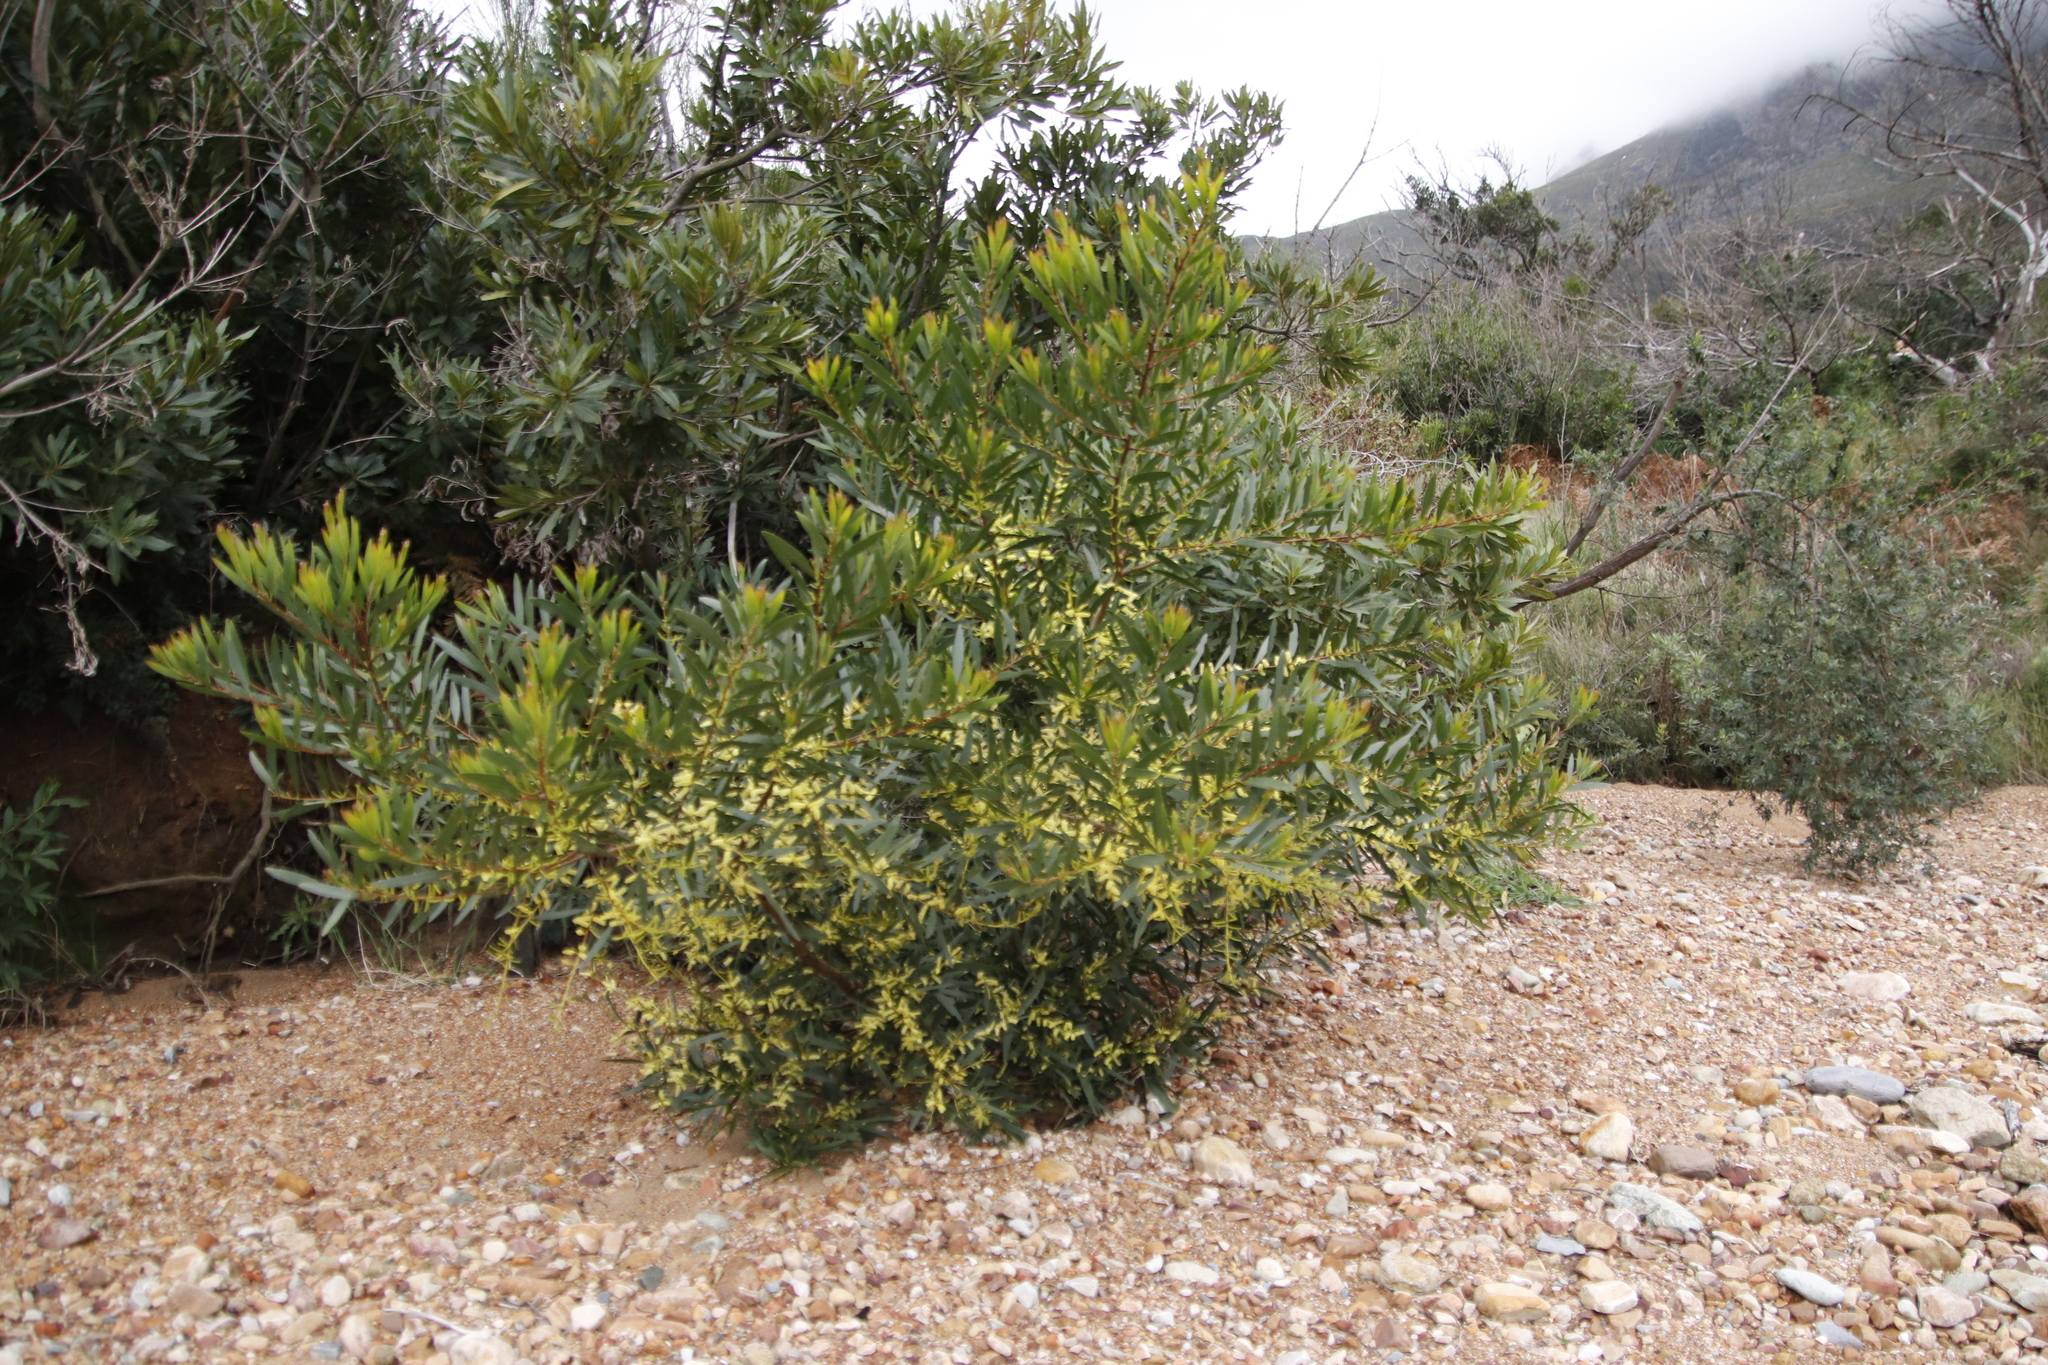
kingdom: Plantae
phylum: Tracheophyta
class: Magnoliopsida
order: Fabales
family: Fabaceae
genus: Acacia
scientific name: Acacia longifolia
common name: Sydney golden wattle
